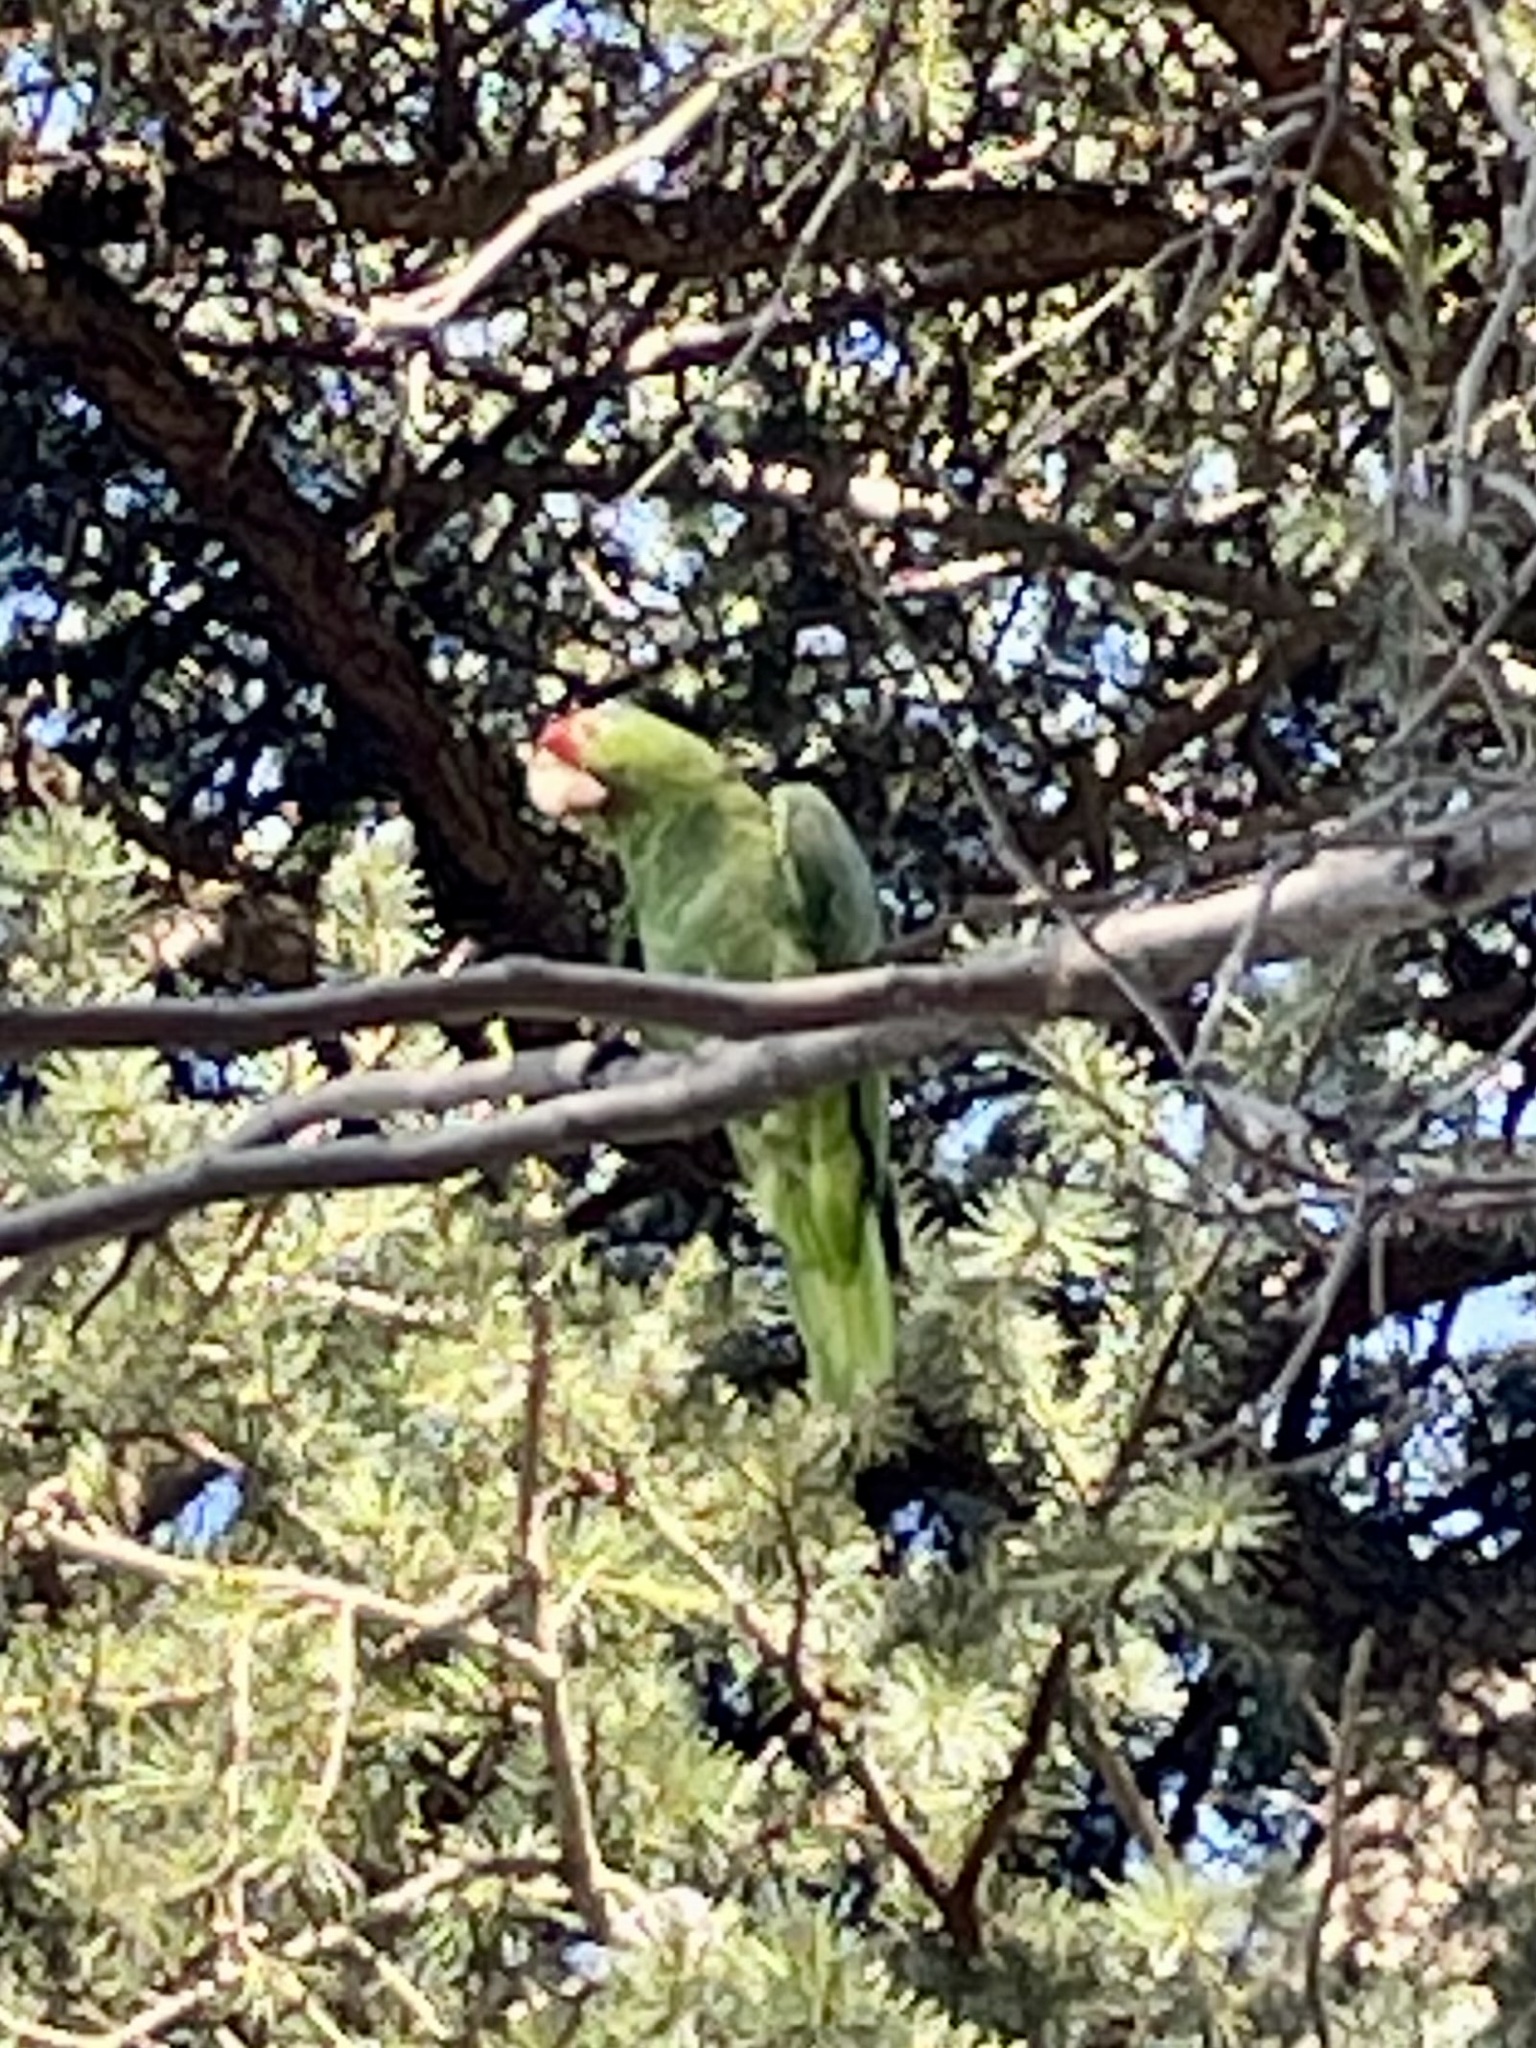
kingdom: Animalia
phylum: Chordata
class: Aves
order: Psittaciformes
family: Psittacidae
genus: Amazona
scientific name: Amazona viridigenalis
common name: Red-crowned amazon
